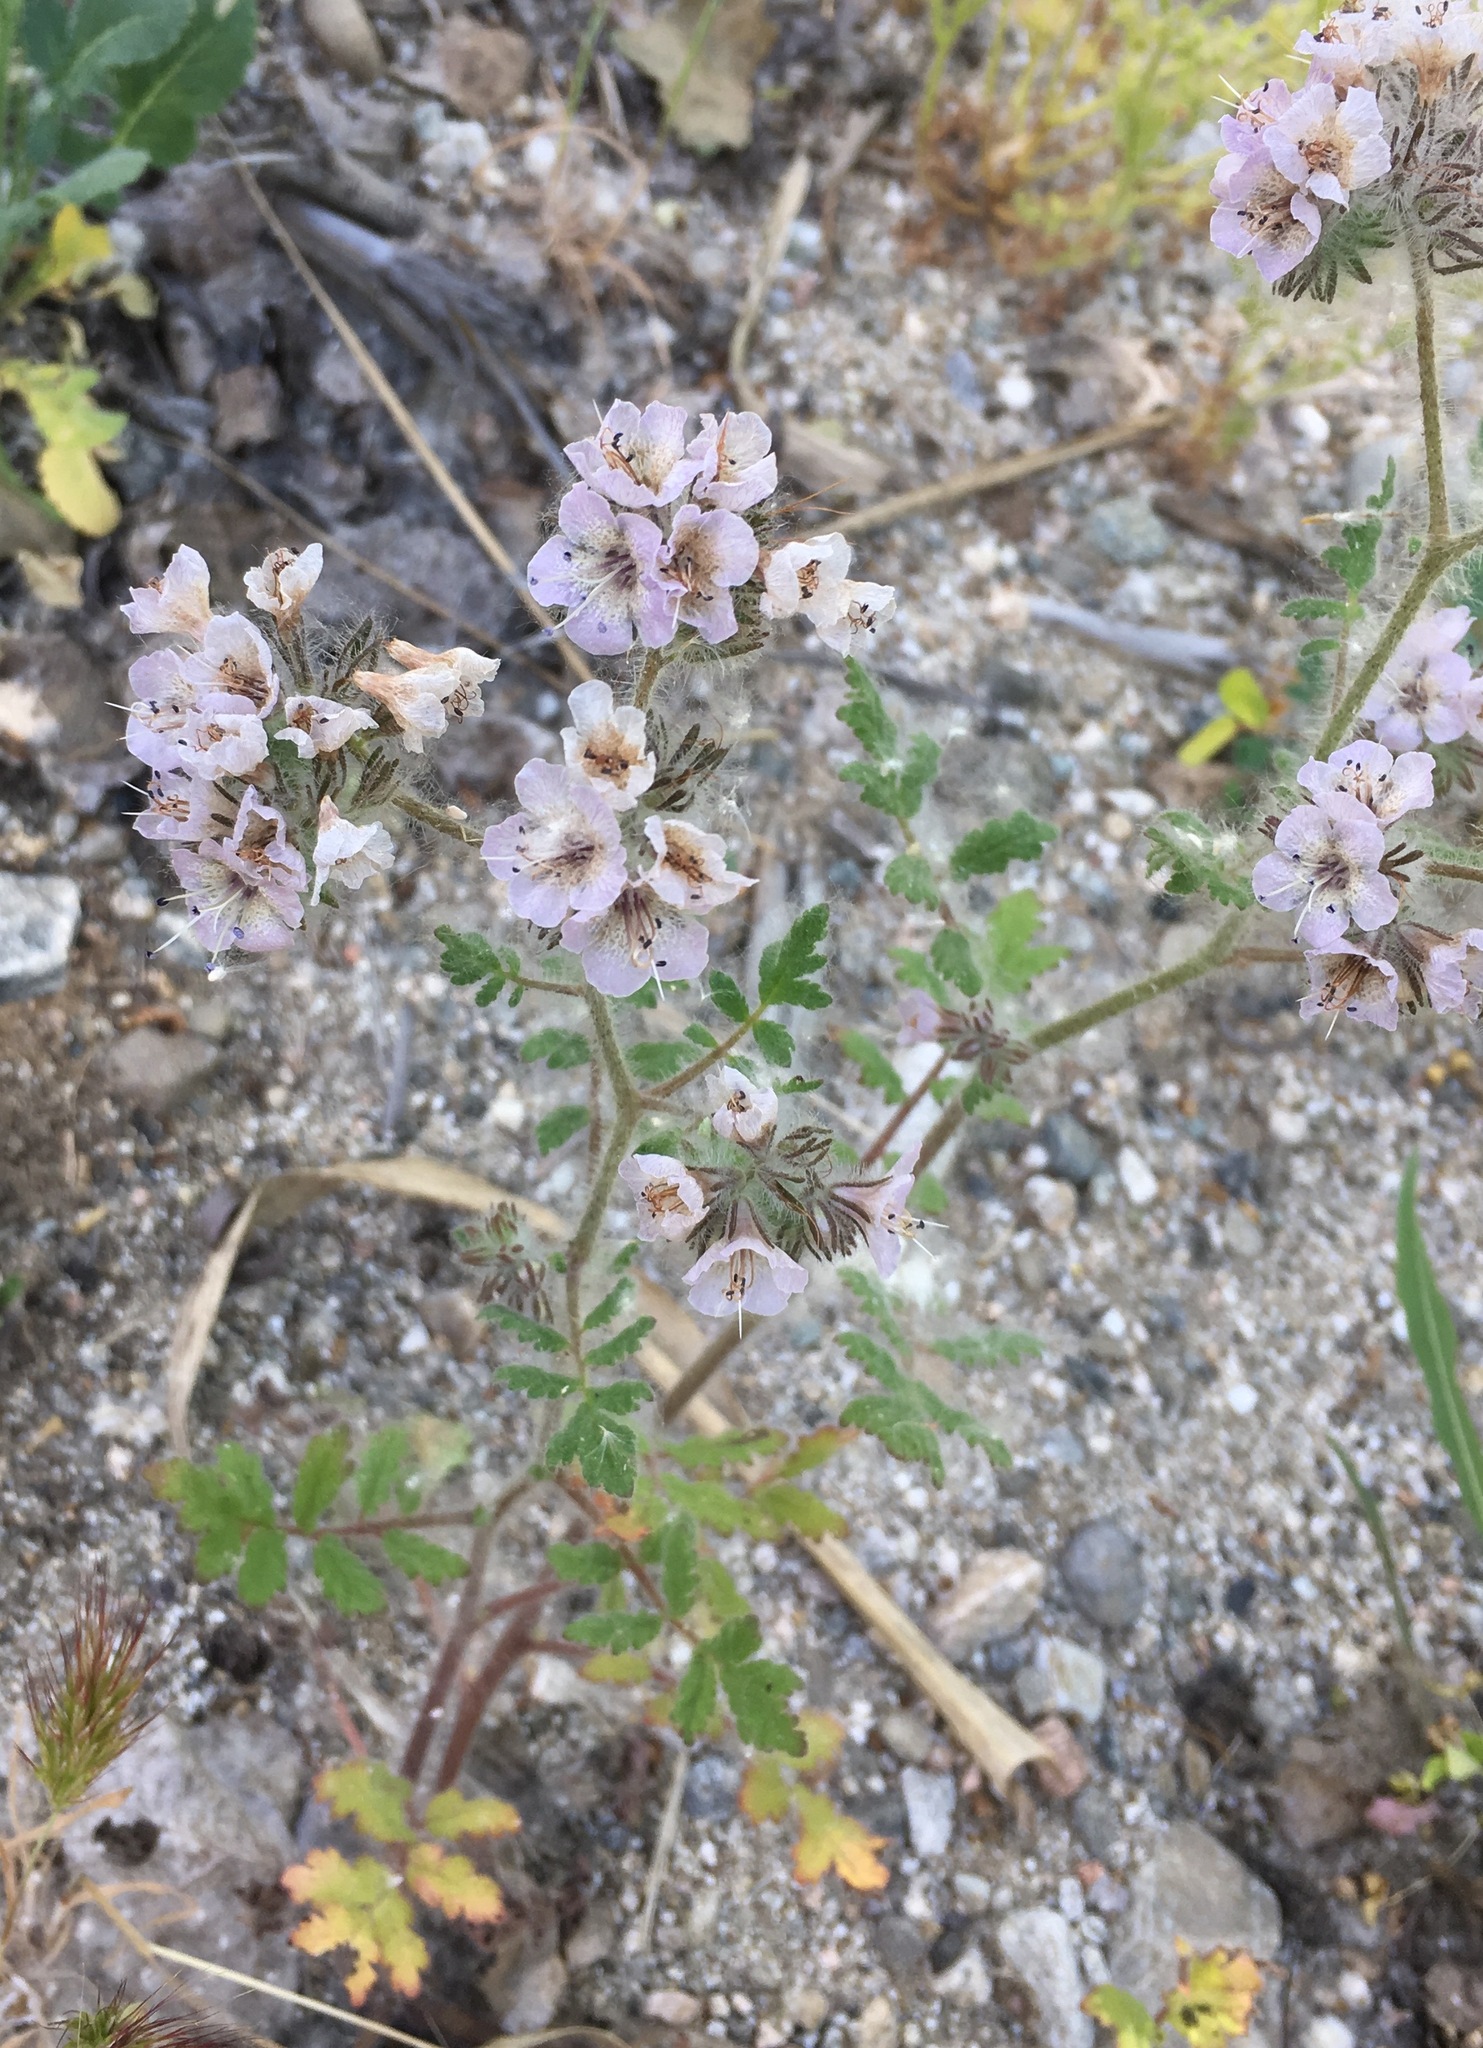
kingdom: Plantae
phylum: Tracheophyta
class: Magnoliopsida
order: Boraginales
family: Hydrophyllaceae
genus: Phacelia
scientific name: Phacelia cicutaria
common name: Caterpillar phacelia
